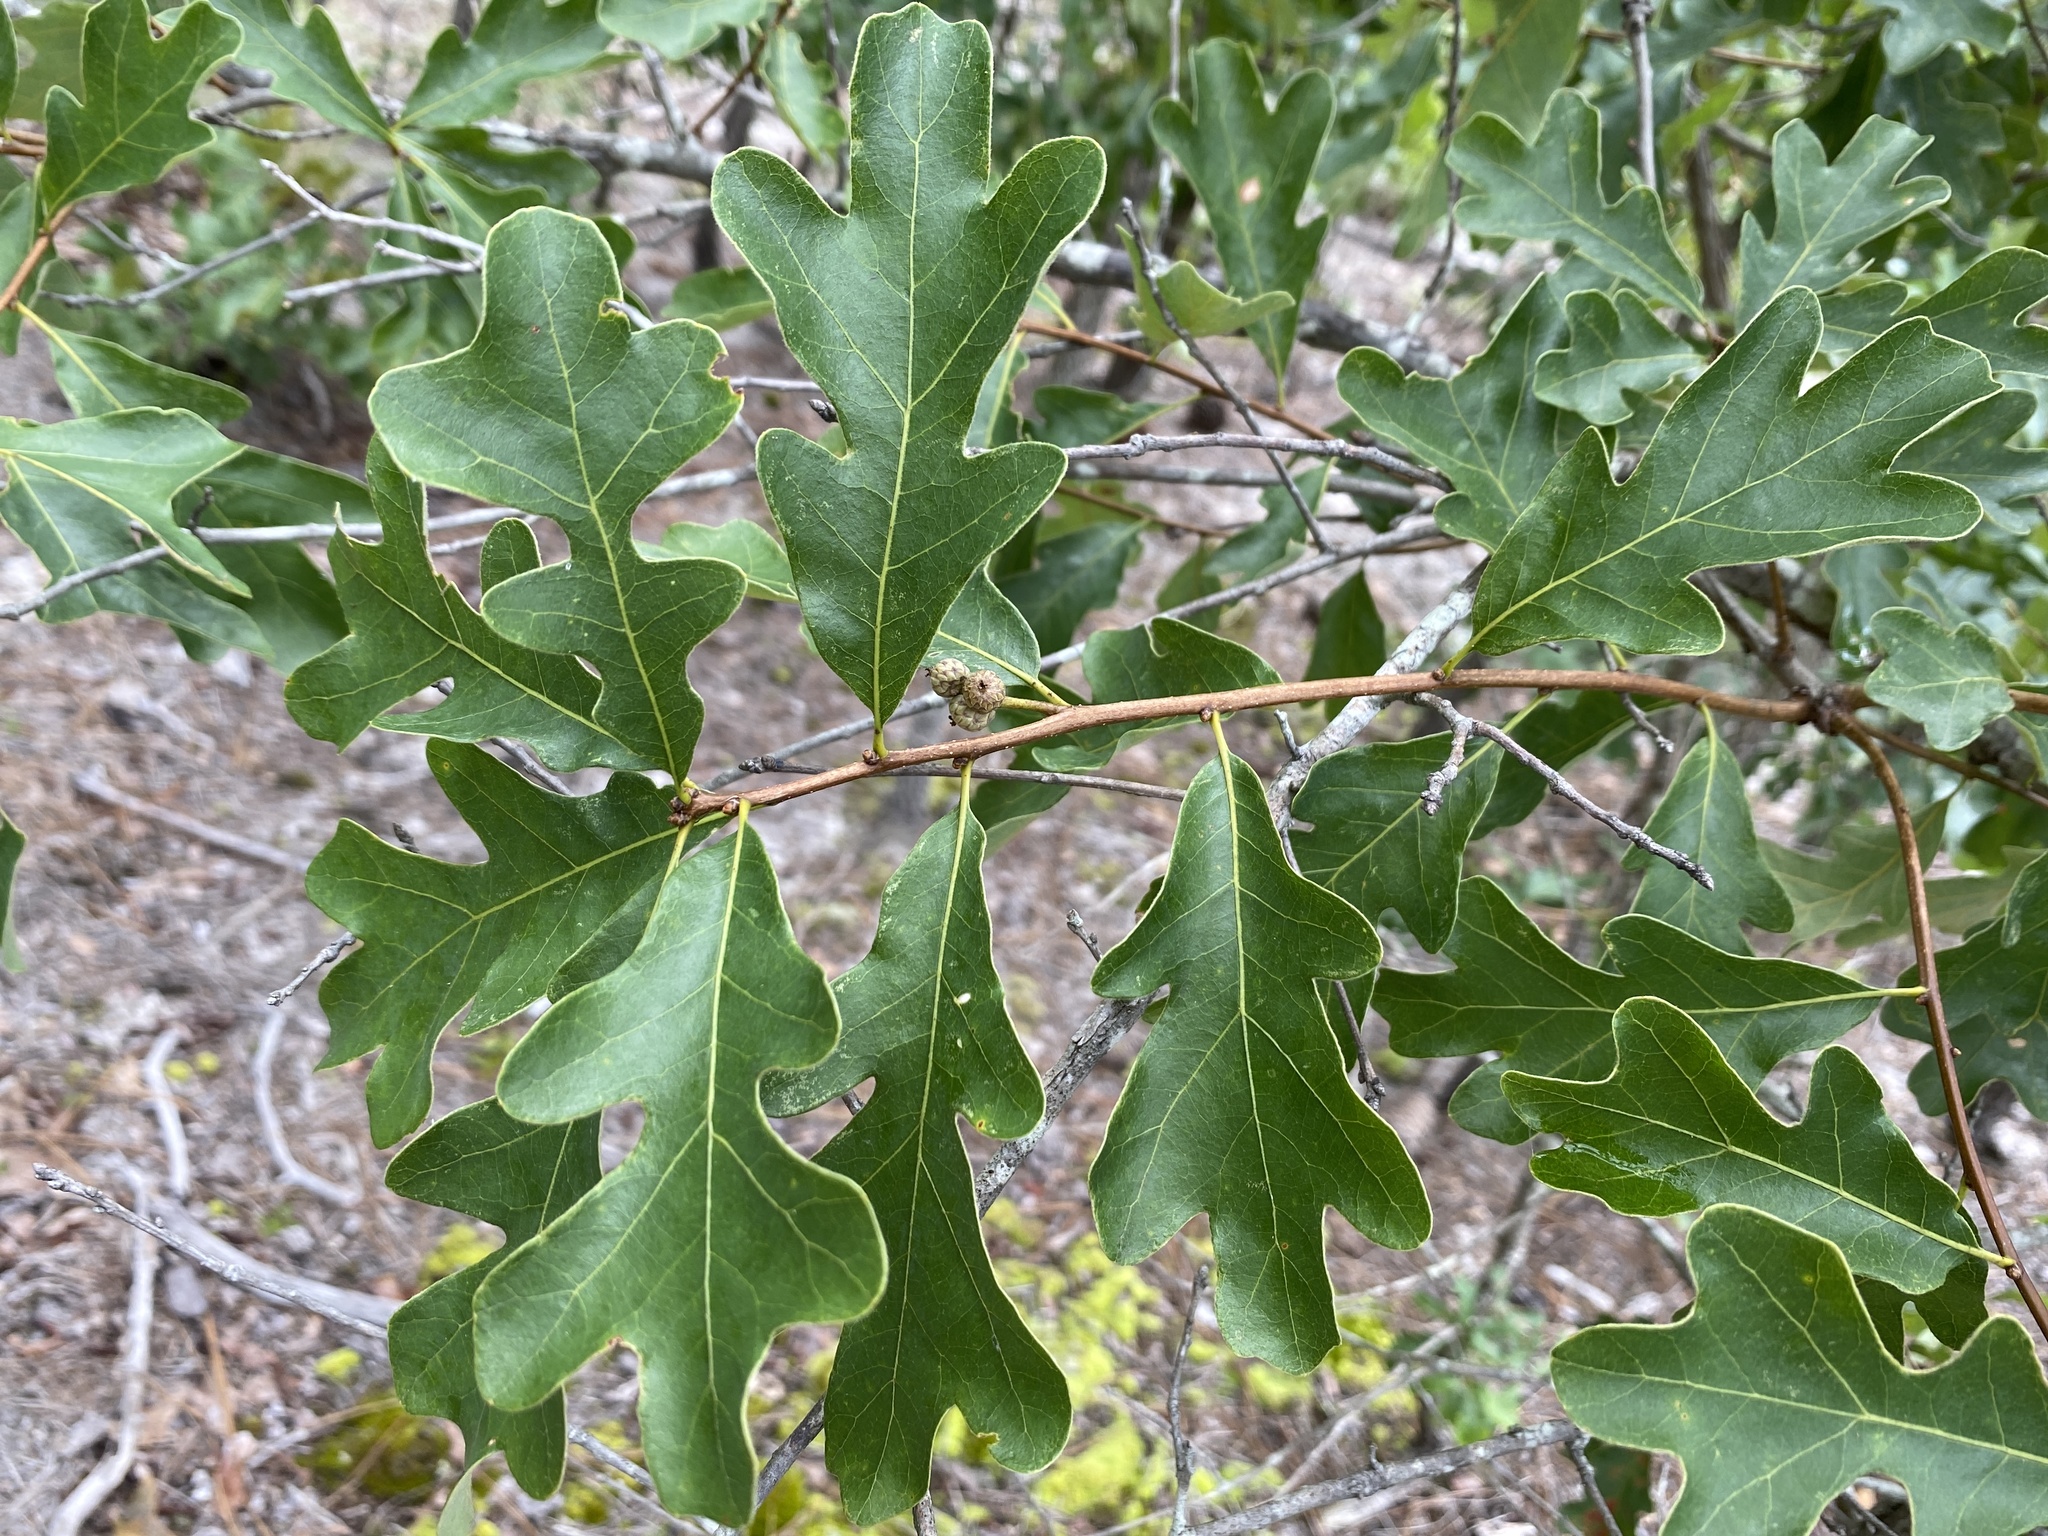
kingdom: Plantae
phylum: Tracheophyta
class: Magnoliopsida
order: Fagales
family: Fagaceae
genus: Quercus
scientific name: Quercus margaretiae
